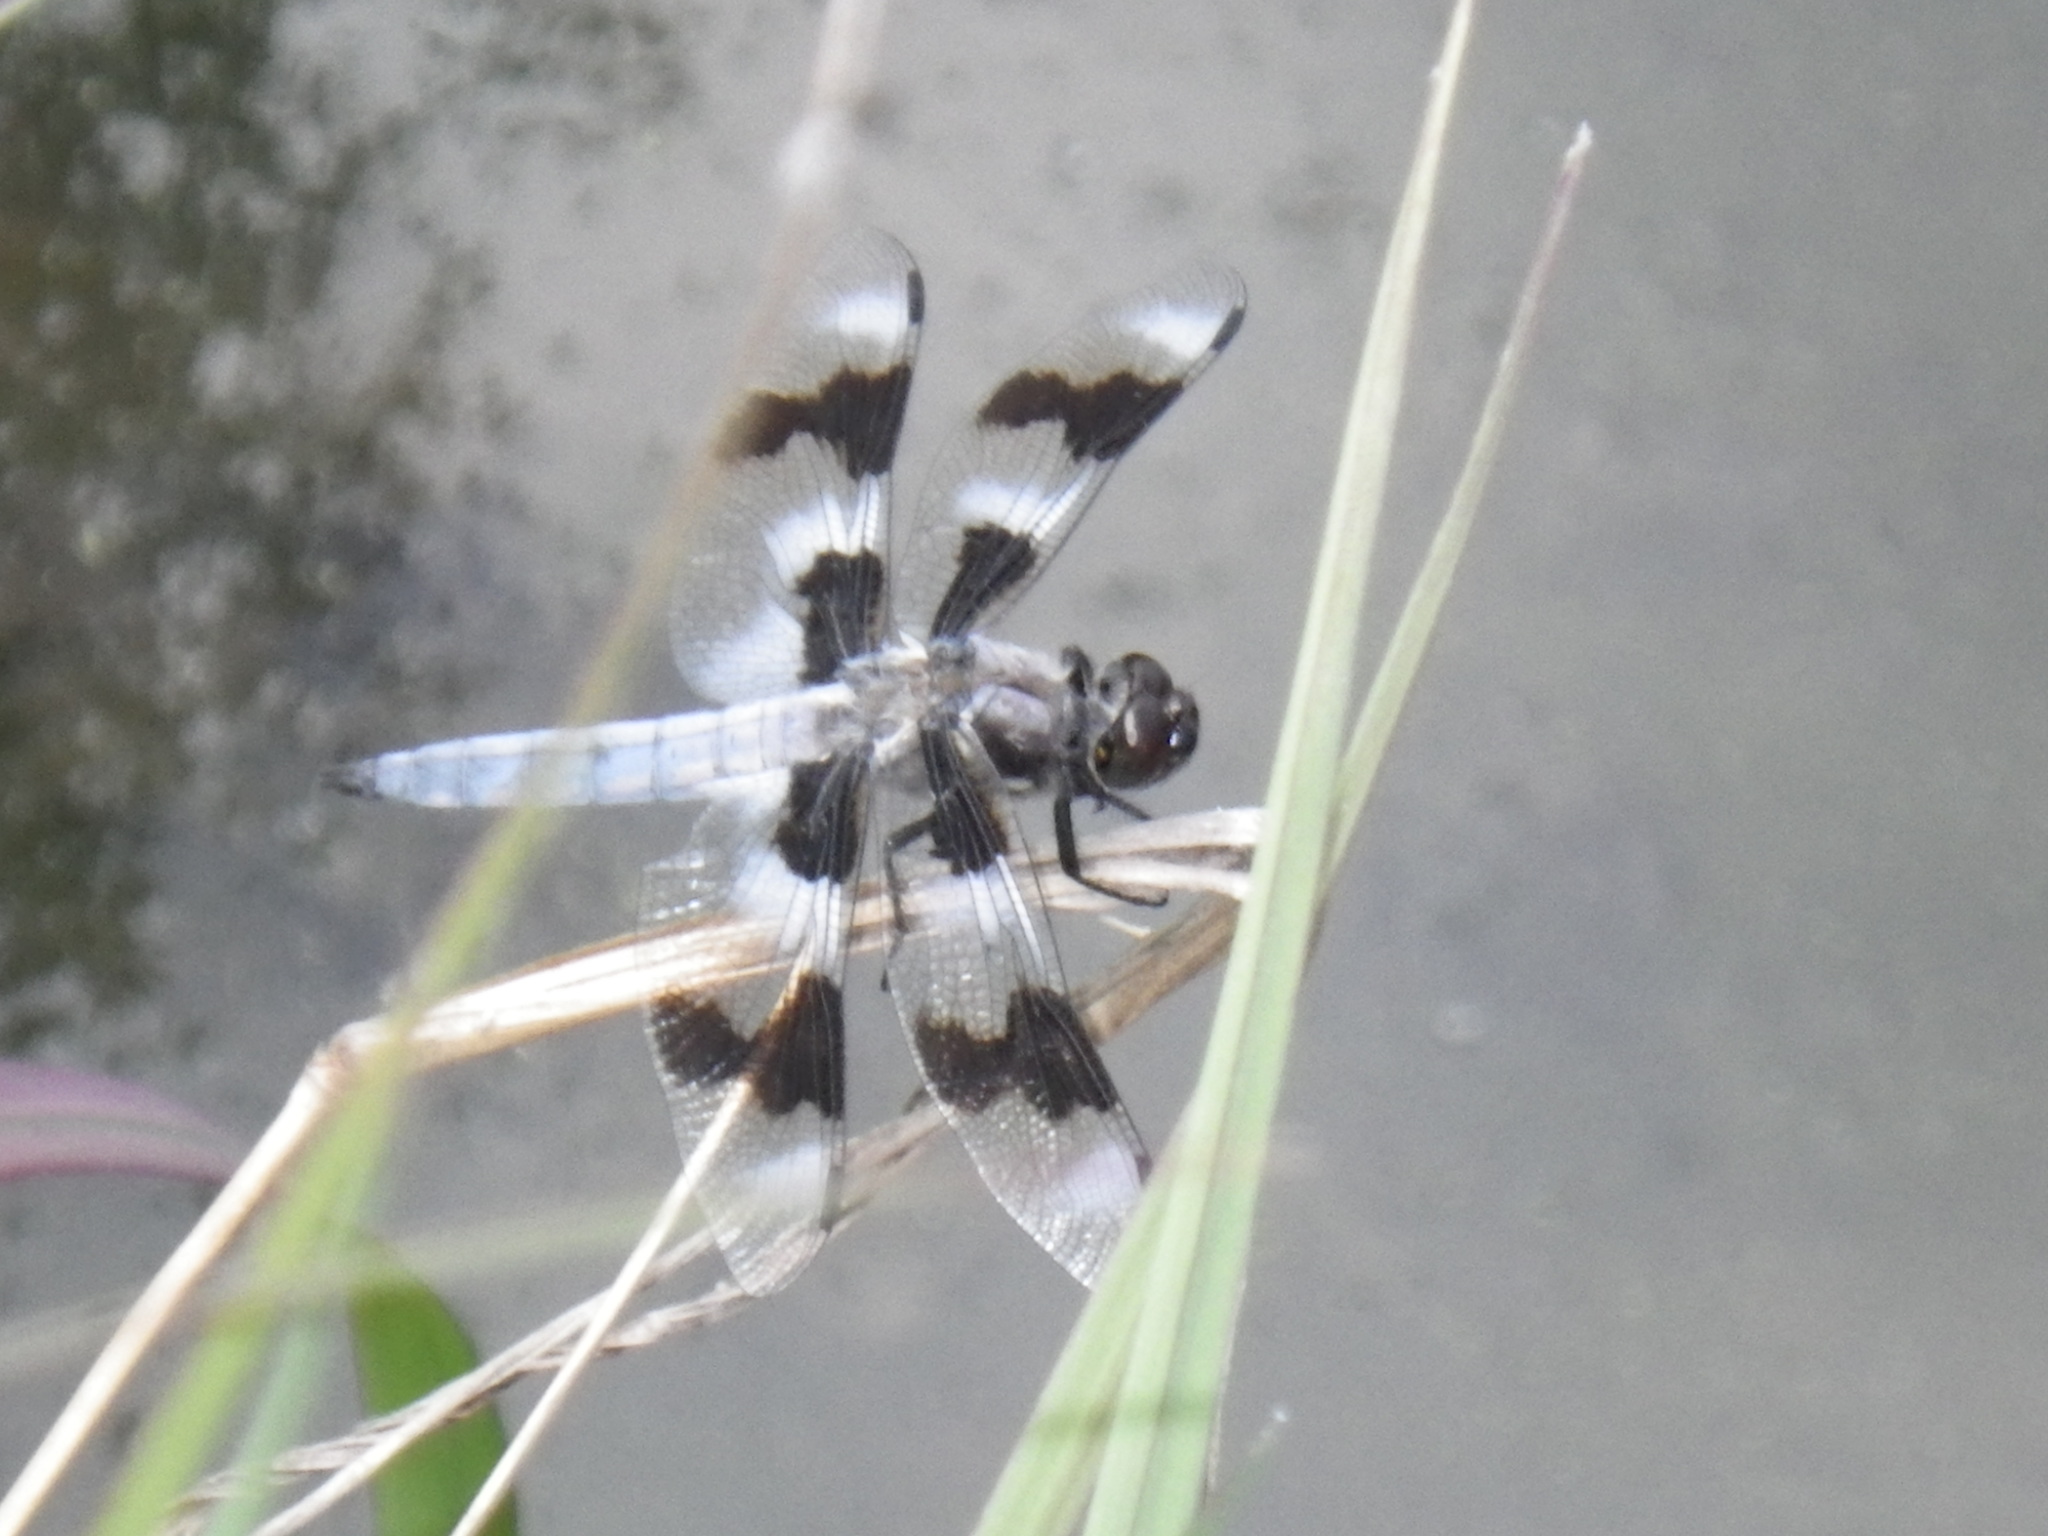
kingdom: Animalia
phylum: Arthropoda
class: Insecta
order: Odonata
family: Libellulidae
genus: Libellula
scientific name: Libellula forensis
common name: Eight-spotted skimmer
